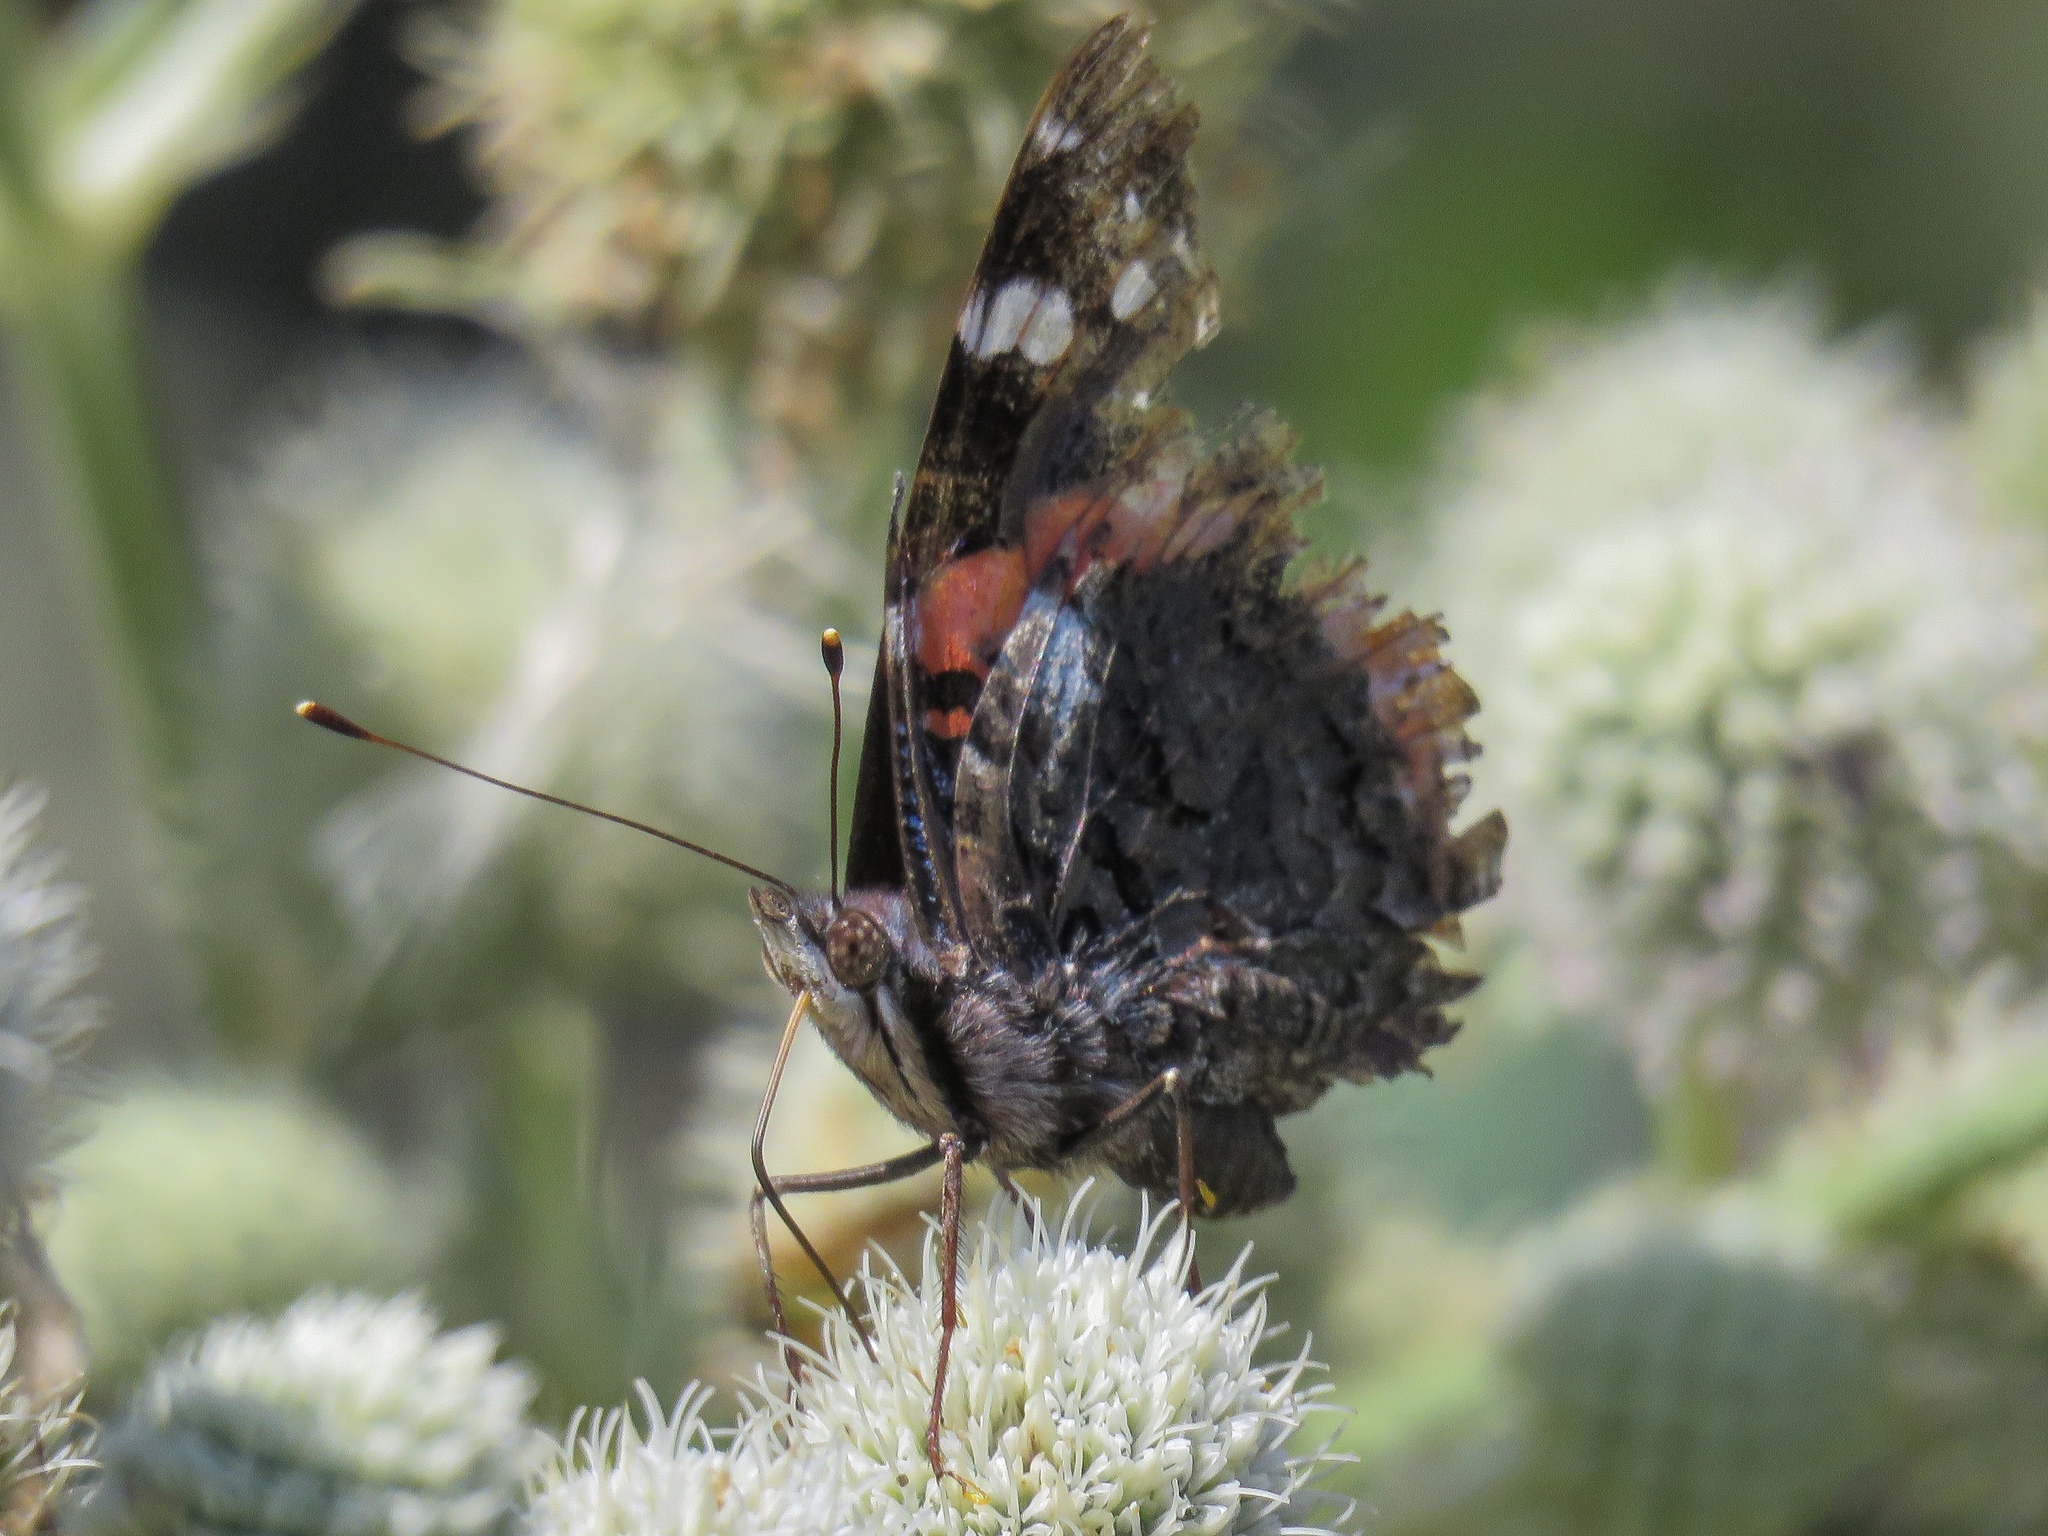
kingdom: Animalia
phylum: Arthropoda
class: Insecta
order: Lepidoptera
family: Nymphalidae
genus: Vanessa
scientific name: Vanessa atalanta
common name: Red admiral
